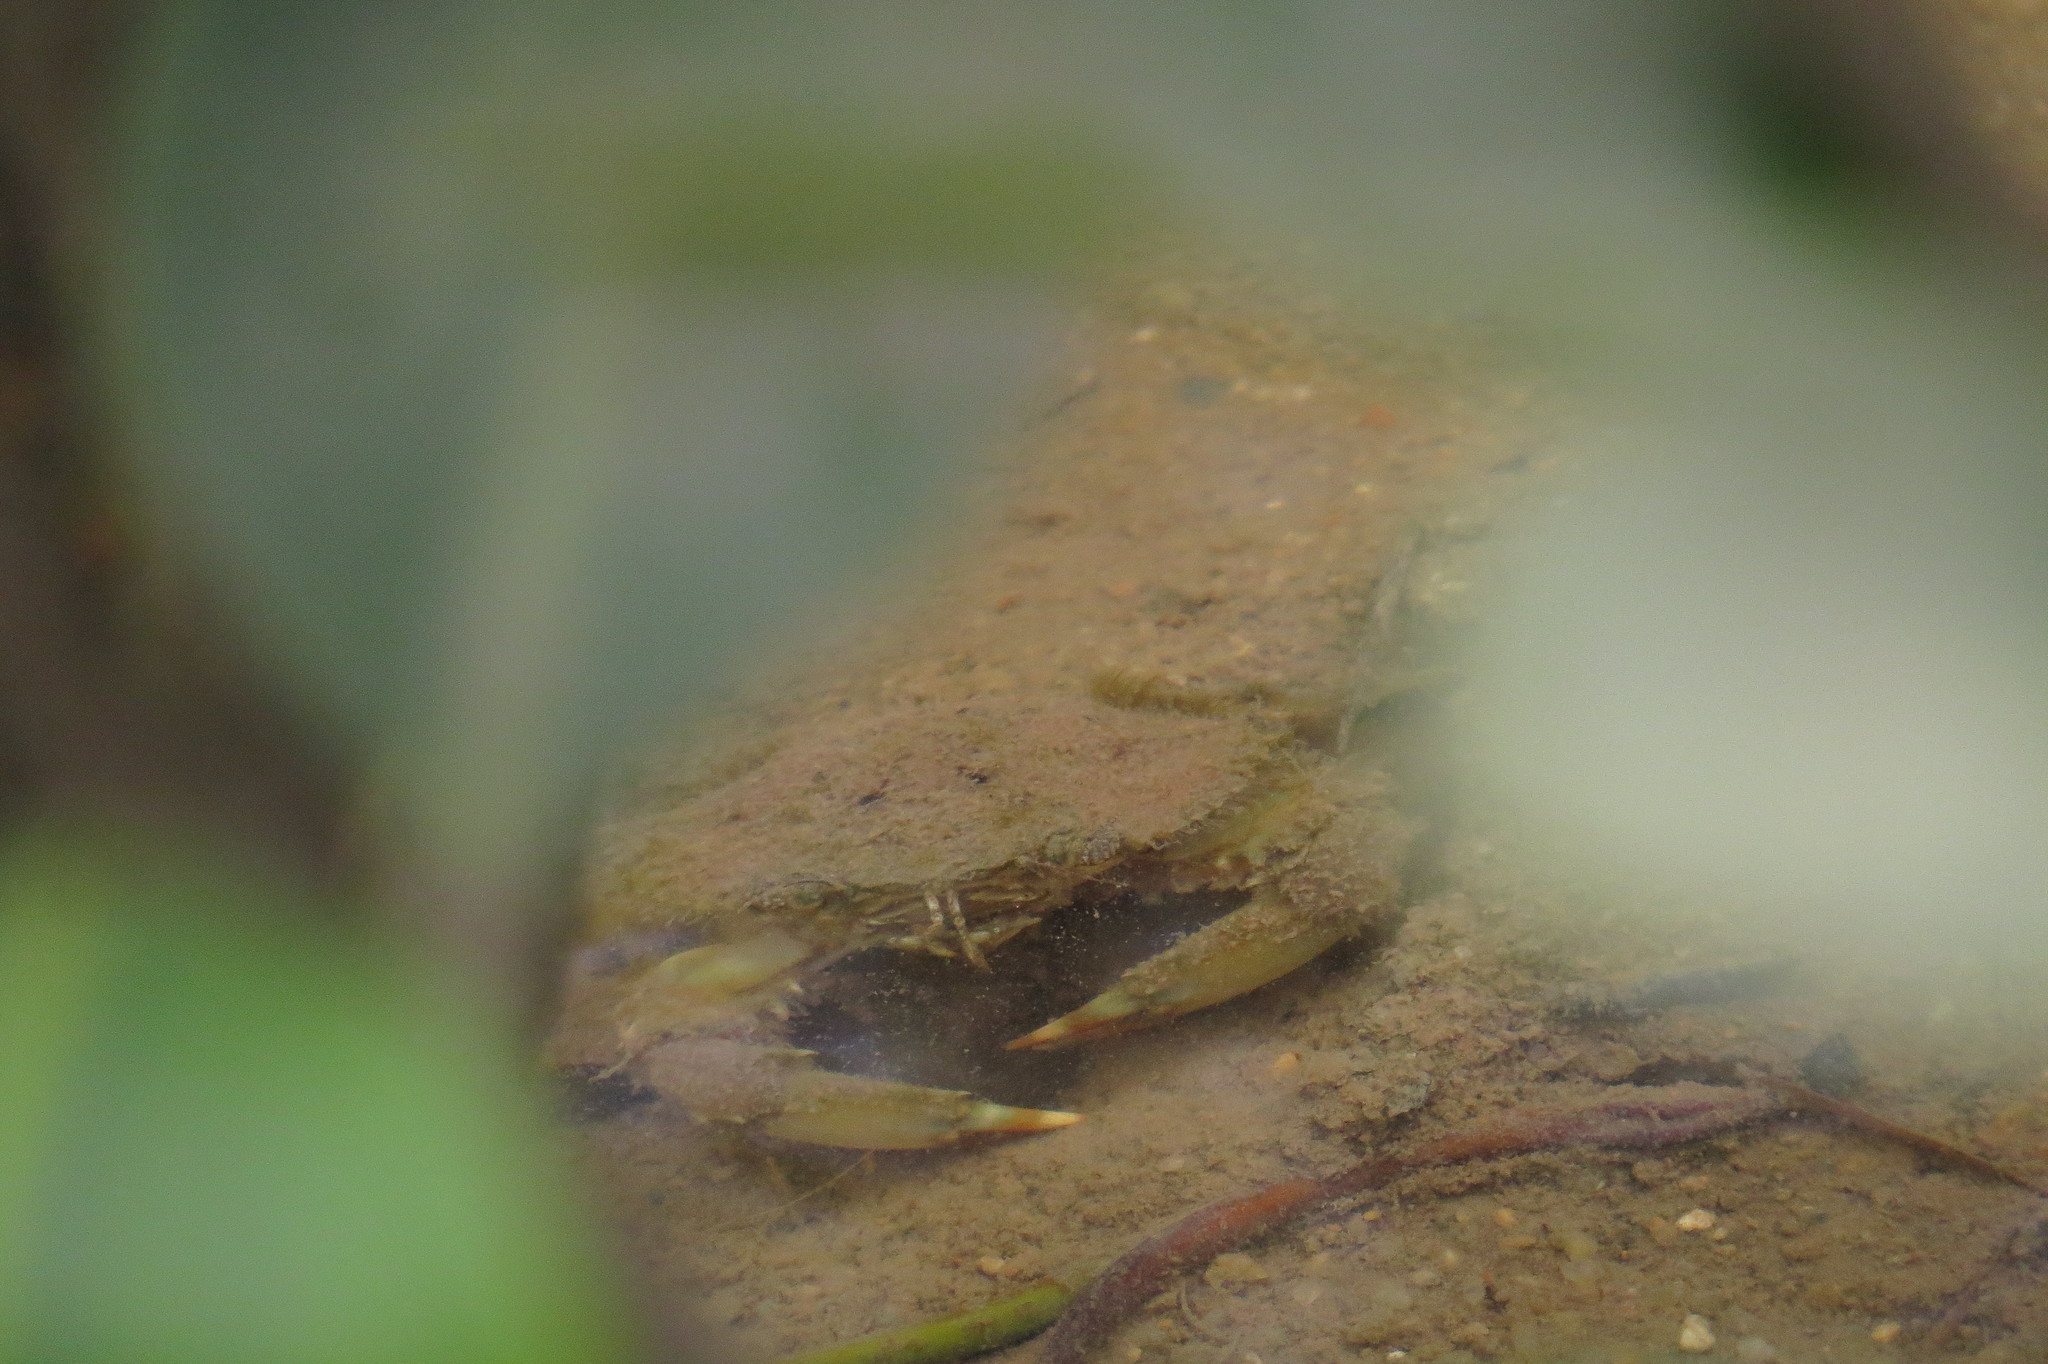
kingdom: Animalia
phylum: Arthropoda
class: Malacostraca
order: Decapoda
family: Portunidae
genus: Scylla
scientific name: Scylla serrata
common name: Giant mud crab
